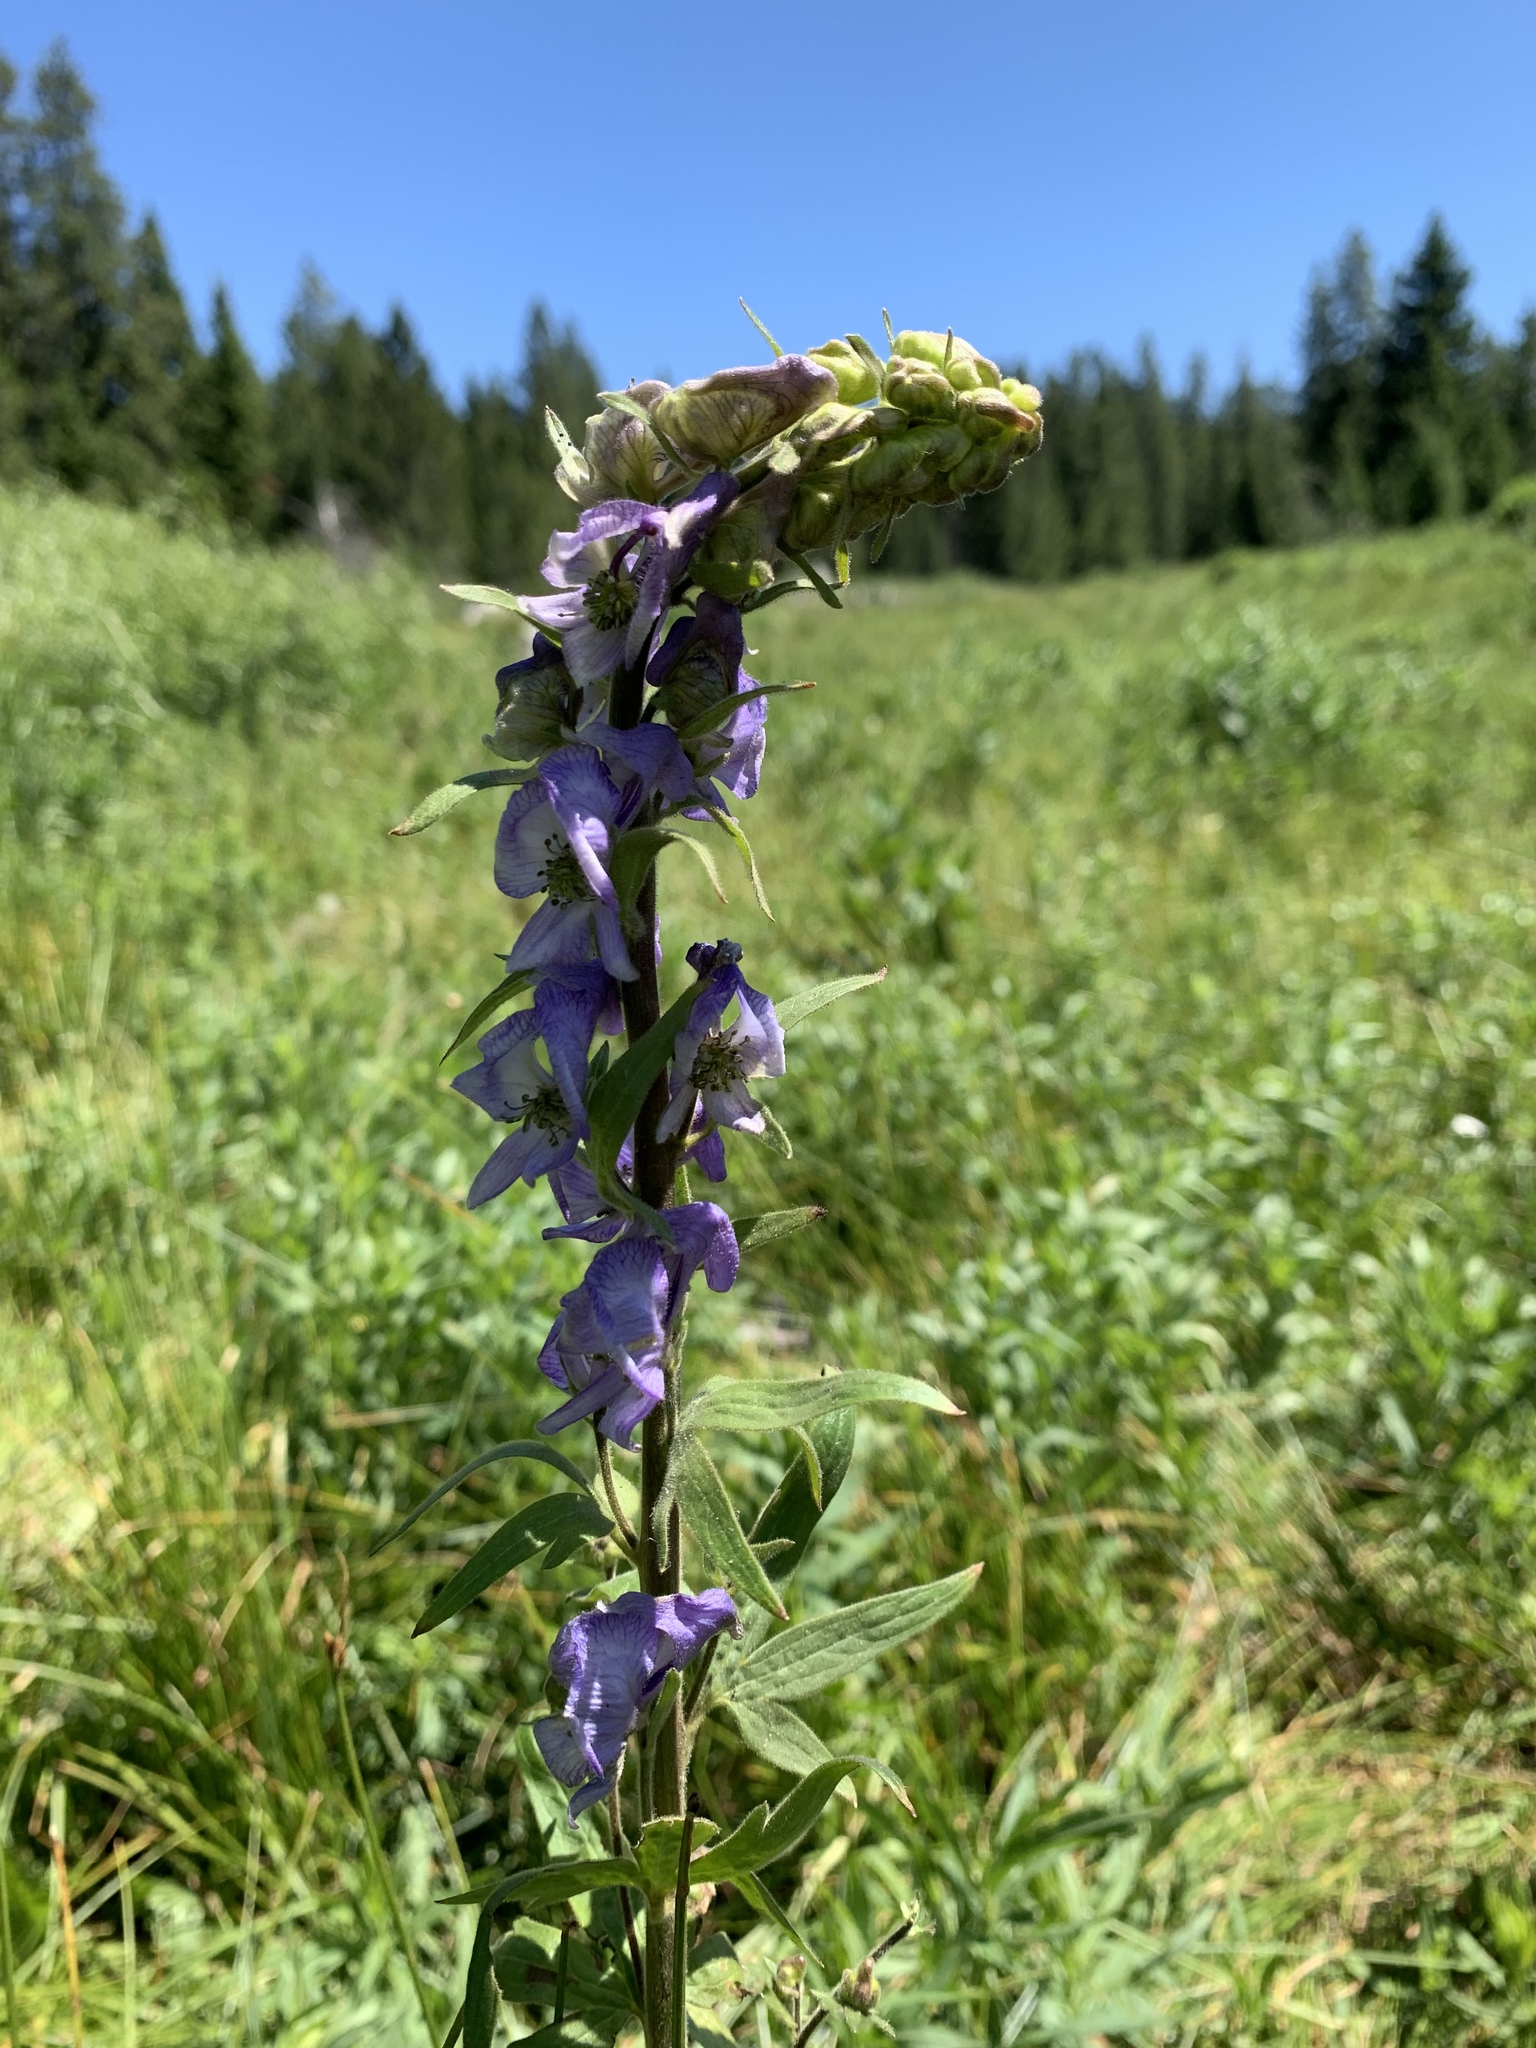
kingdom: Plantae
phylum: Tracheophyta
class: Magnoliopsida
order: Ranunculales
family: Ranunculaceae
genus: Aconitum
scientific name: Aconitum columbianum
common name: Columbia aconite
